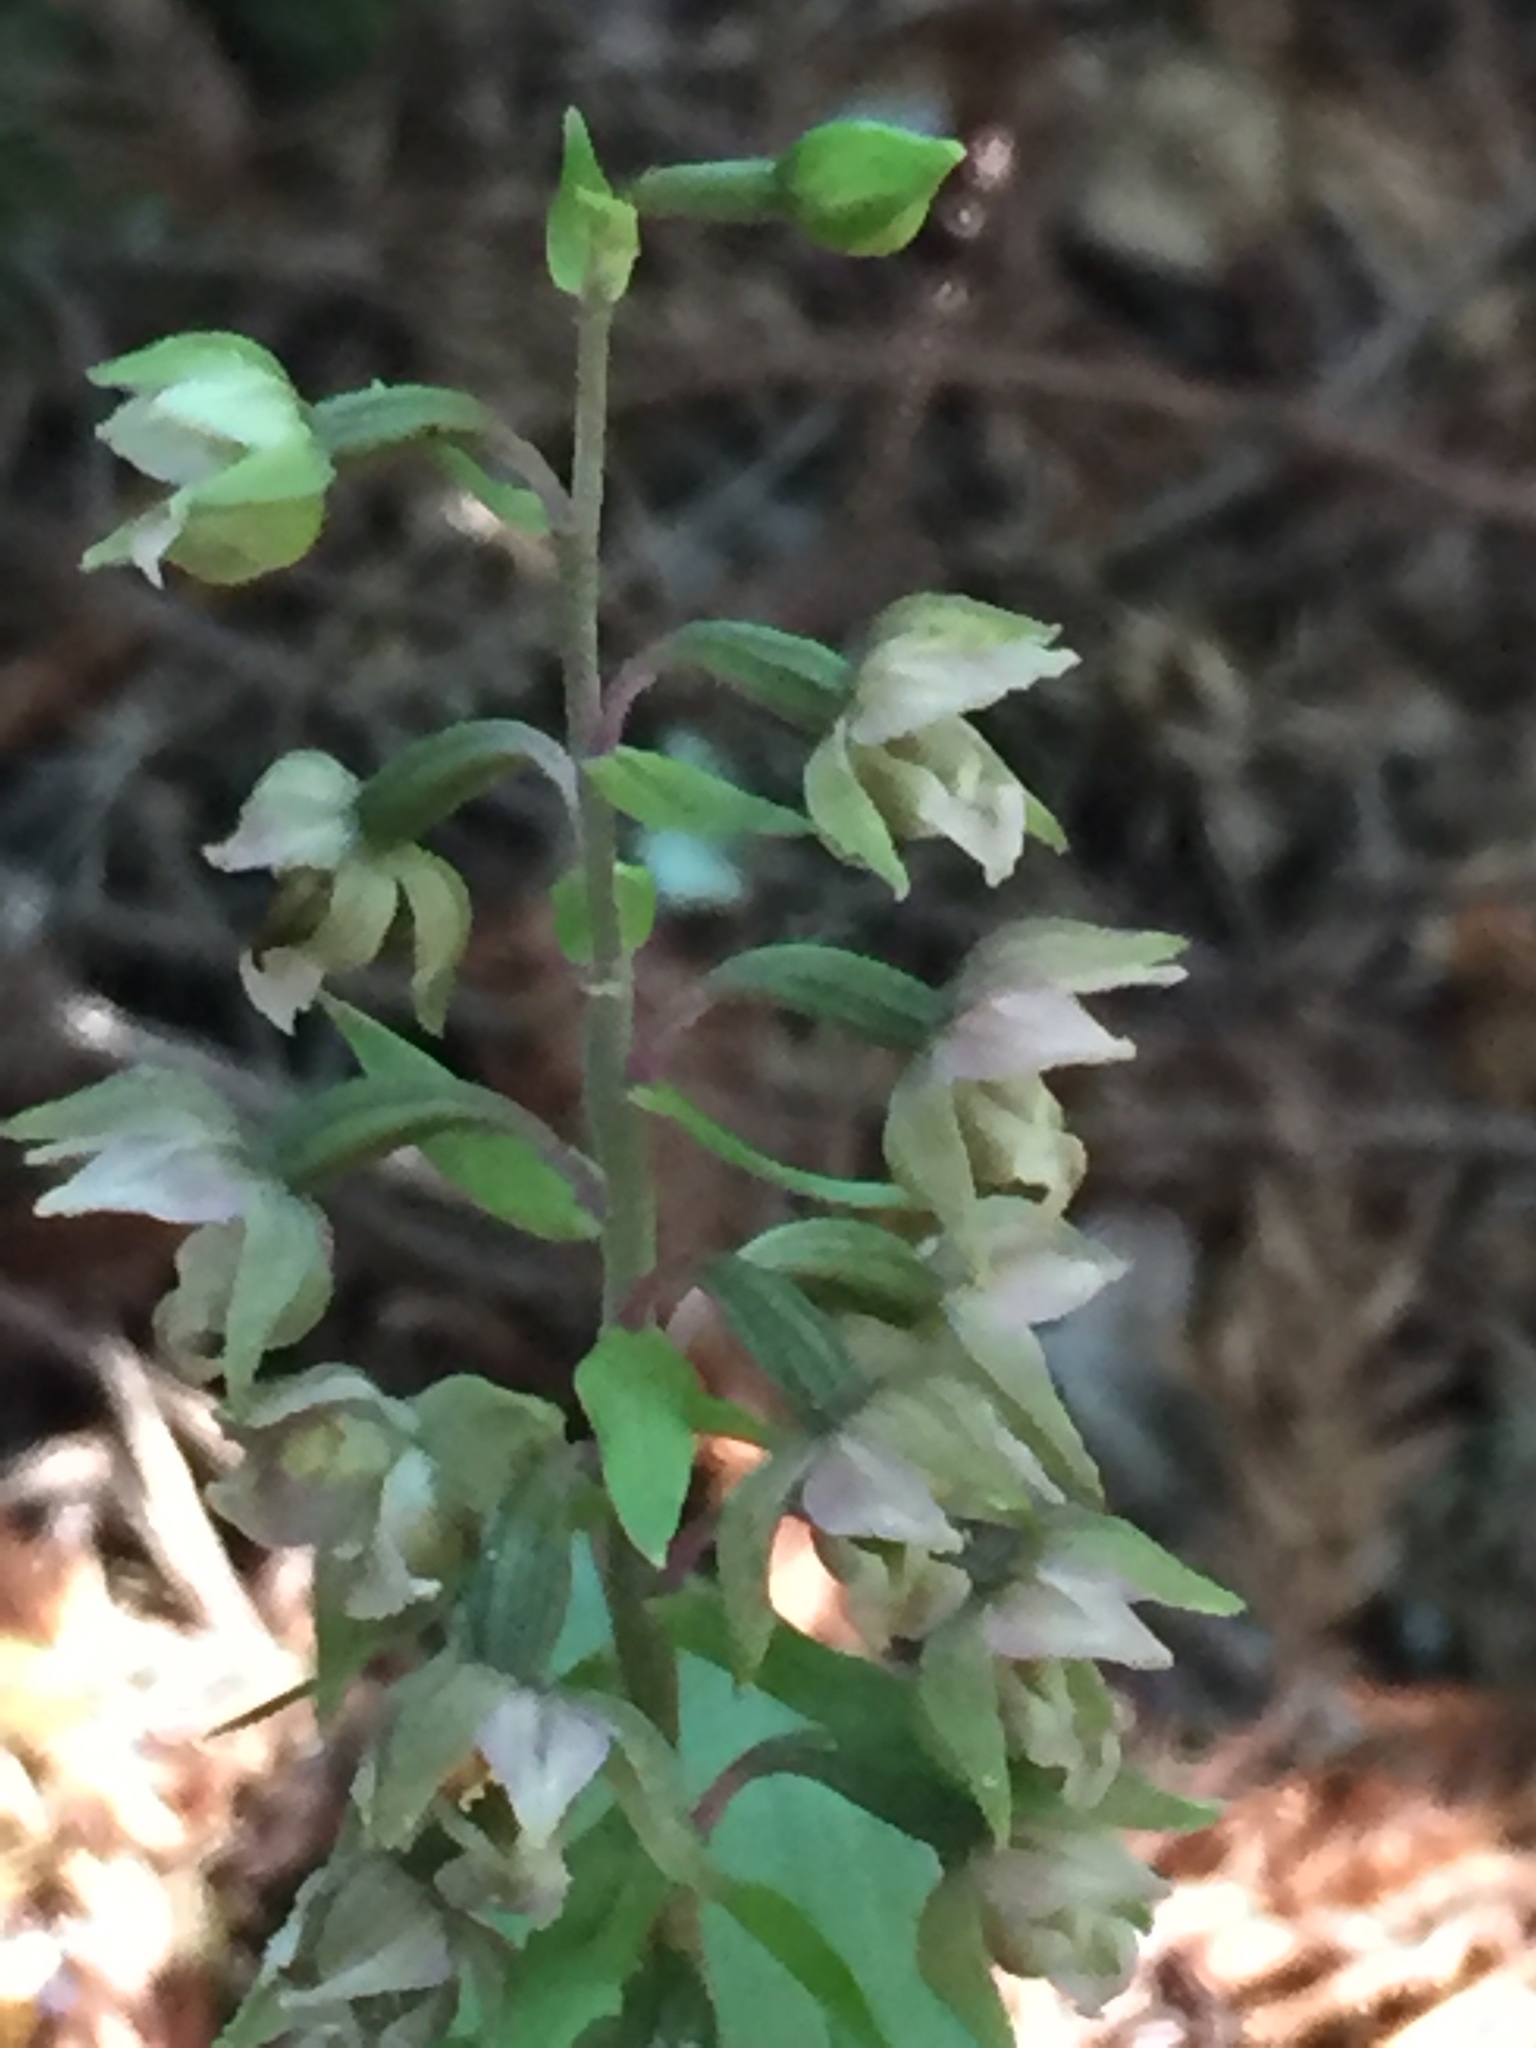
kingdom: Plantae
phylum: Tracheophyta
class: Liliopsida
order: Asparagales
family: Orchidaceae
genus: Epipactis
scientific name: Epipactis helleborine
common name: Broad-leaved helleborine
